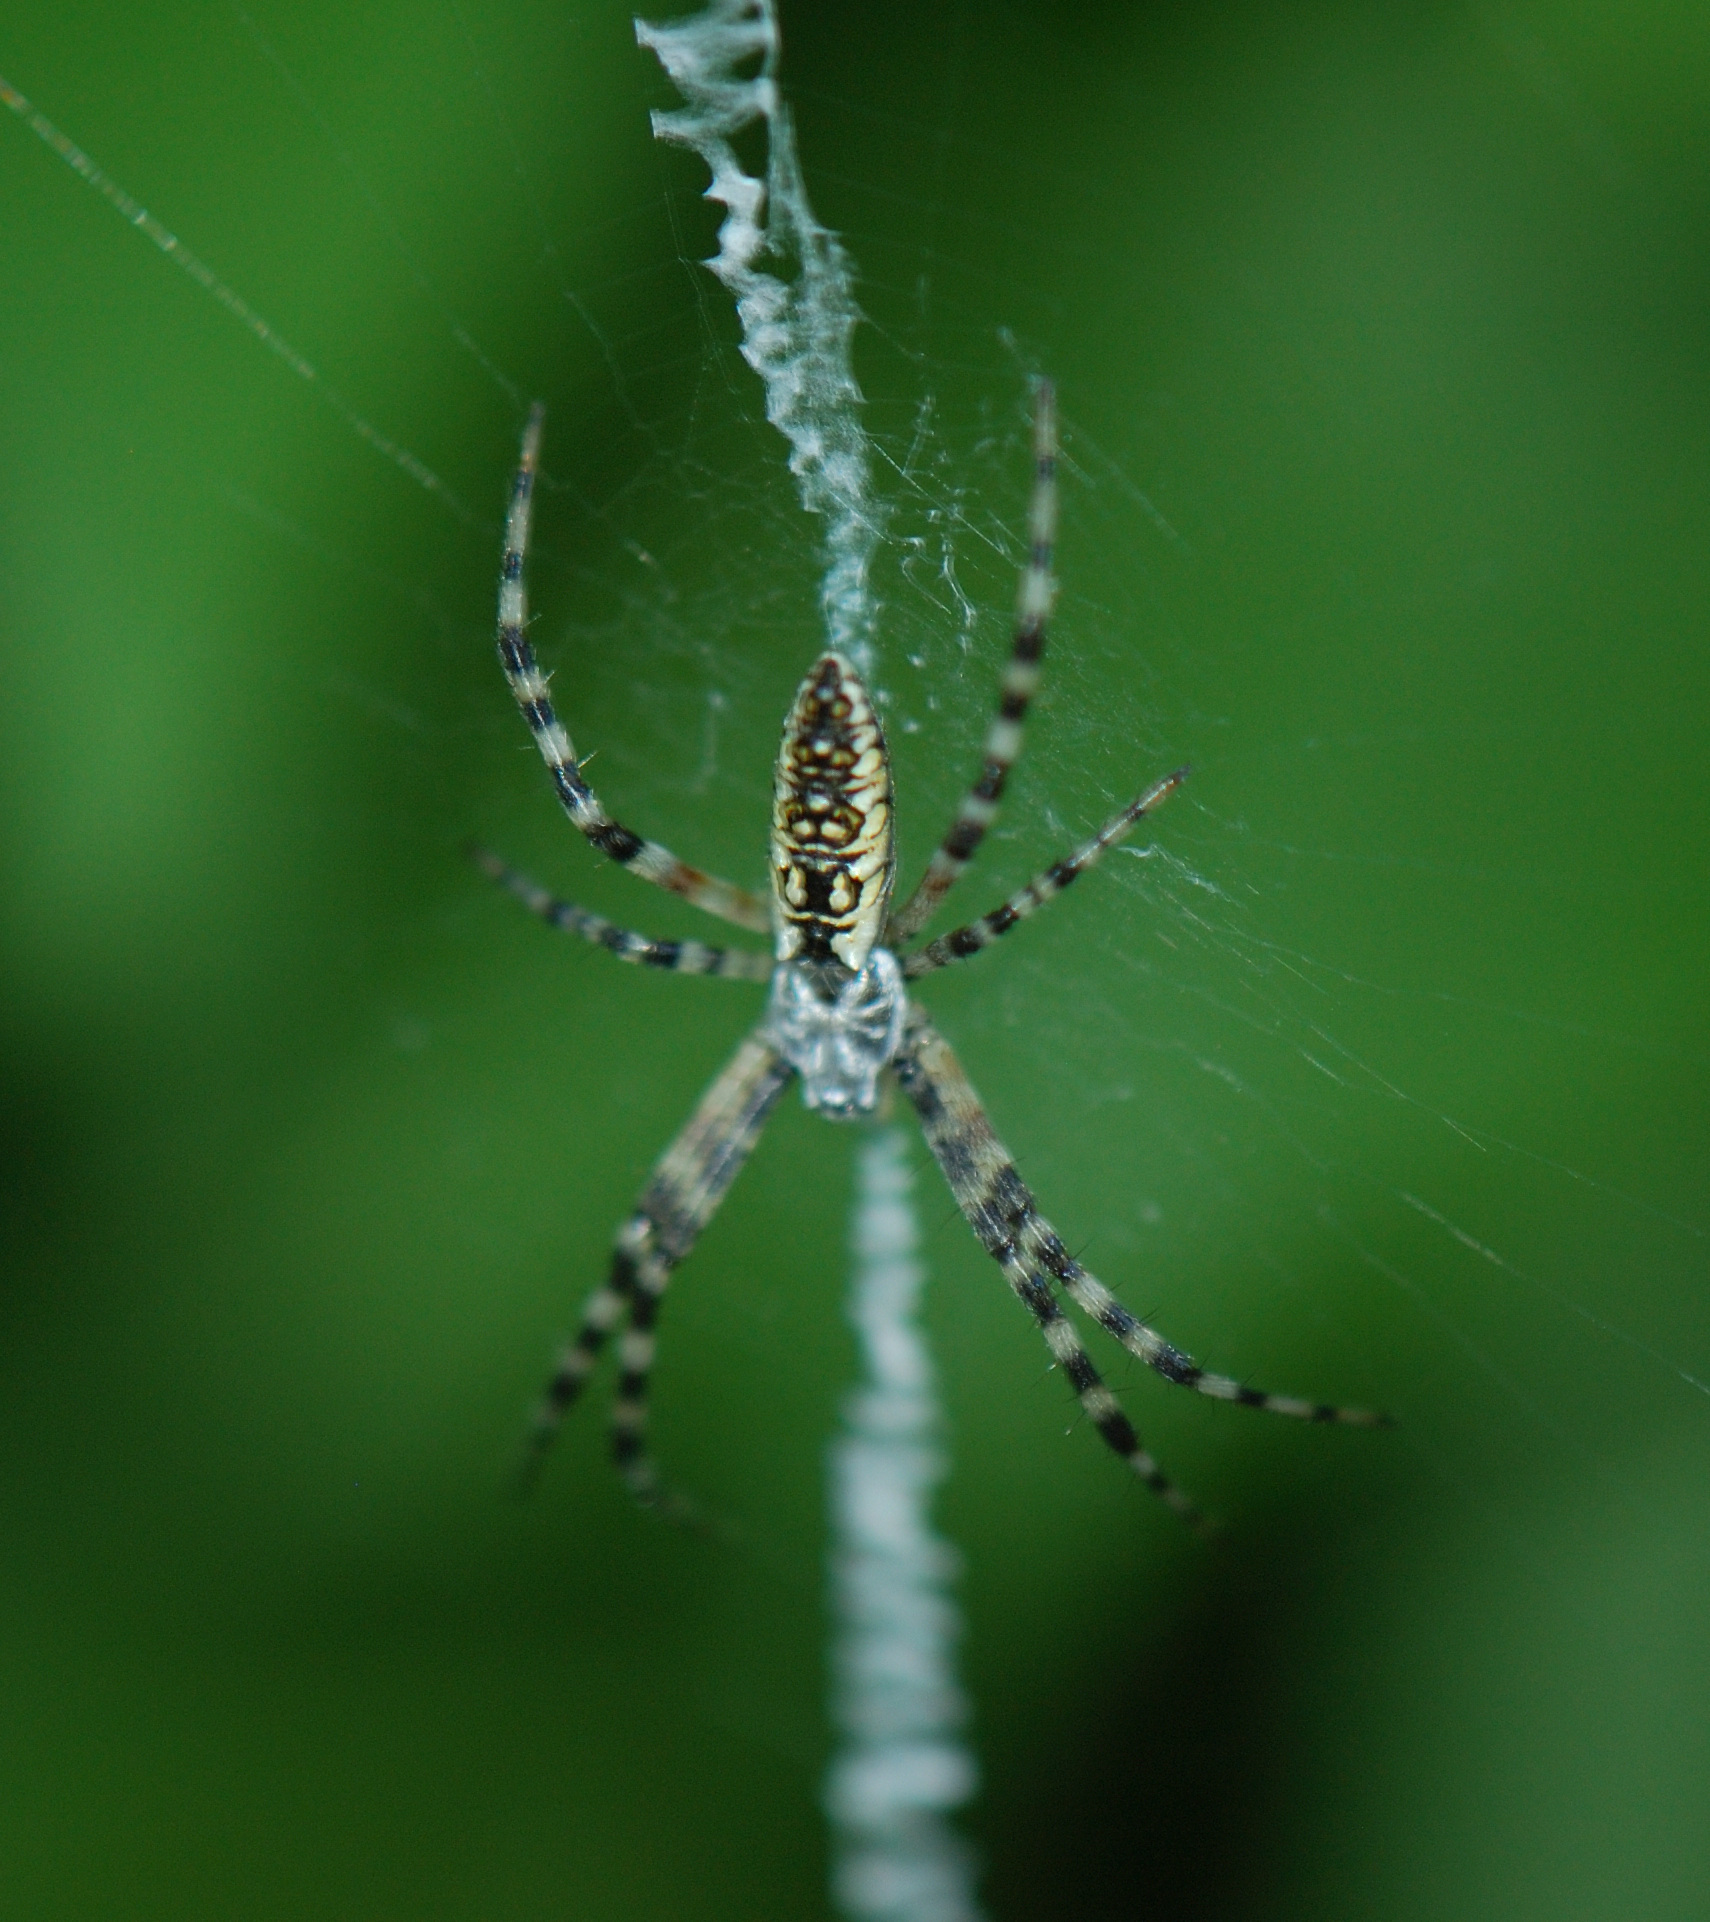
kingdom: Animalia
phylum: Arthropoda
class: Arachnida
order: Araneae
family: Araneidae
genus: Argiope
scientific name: Argiope aurantia
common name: Orb weavers
